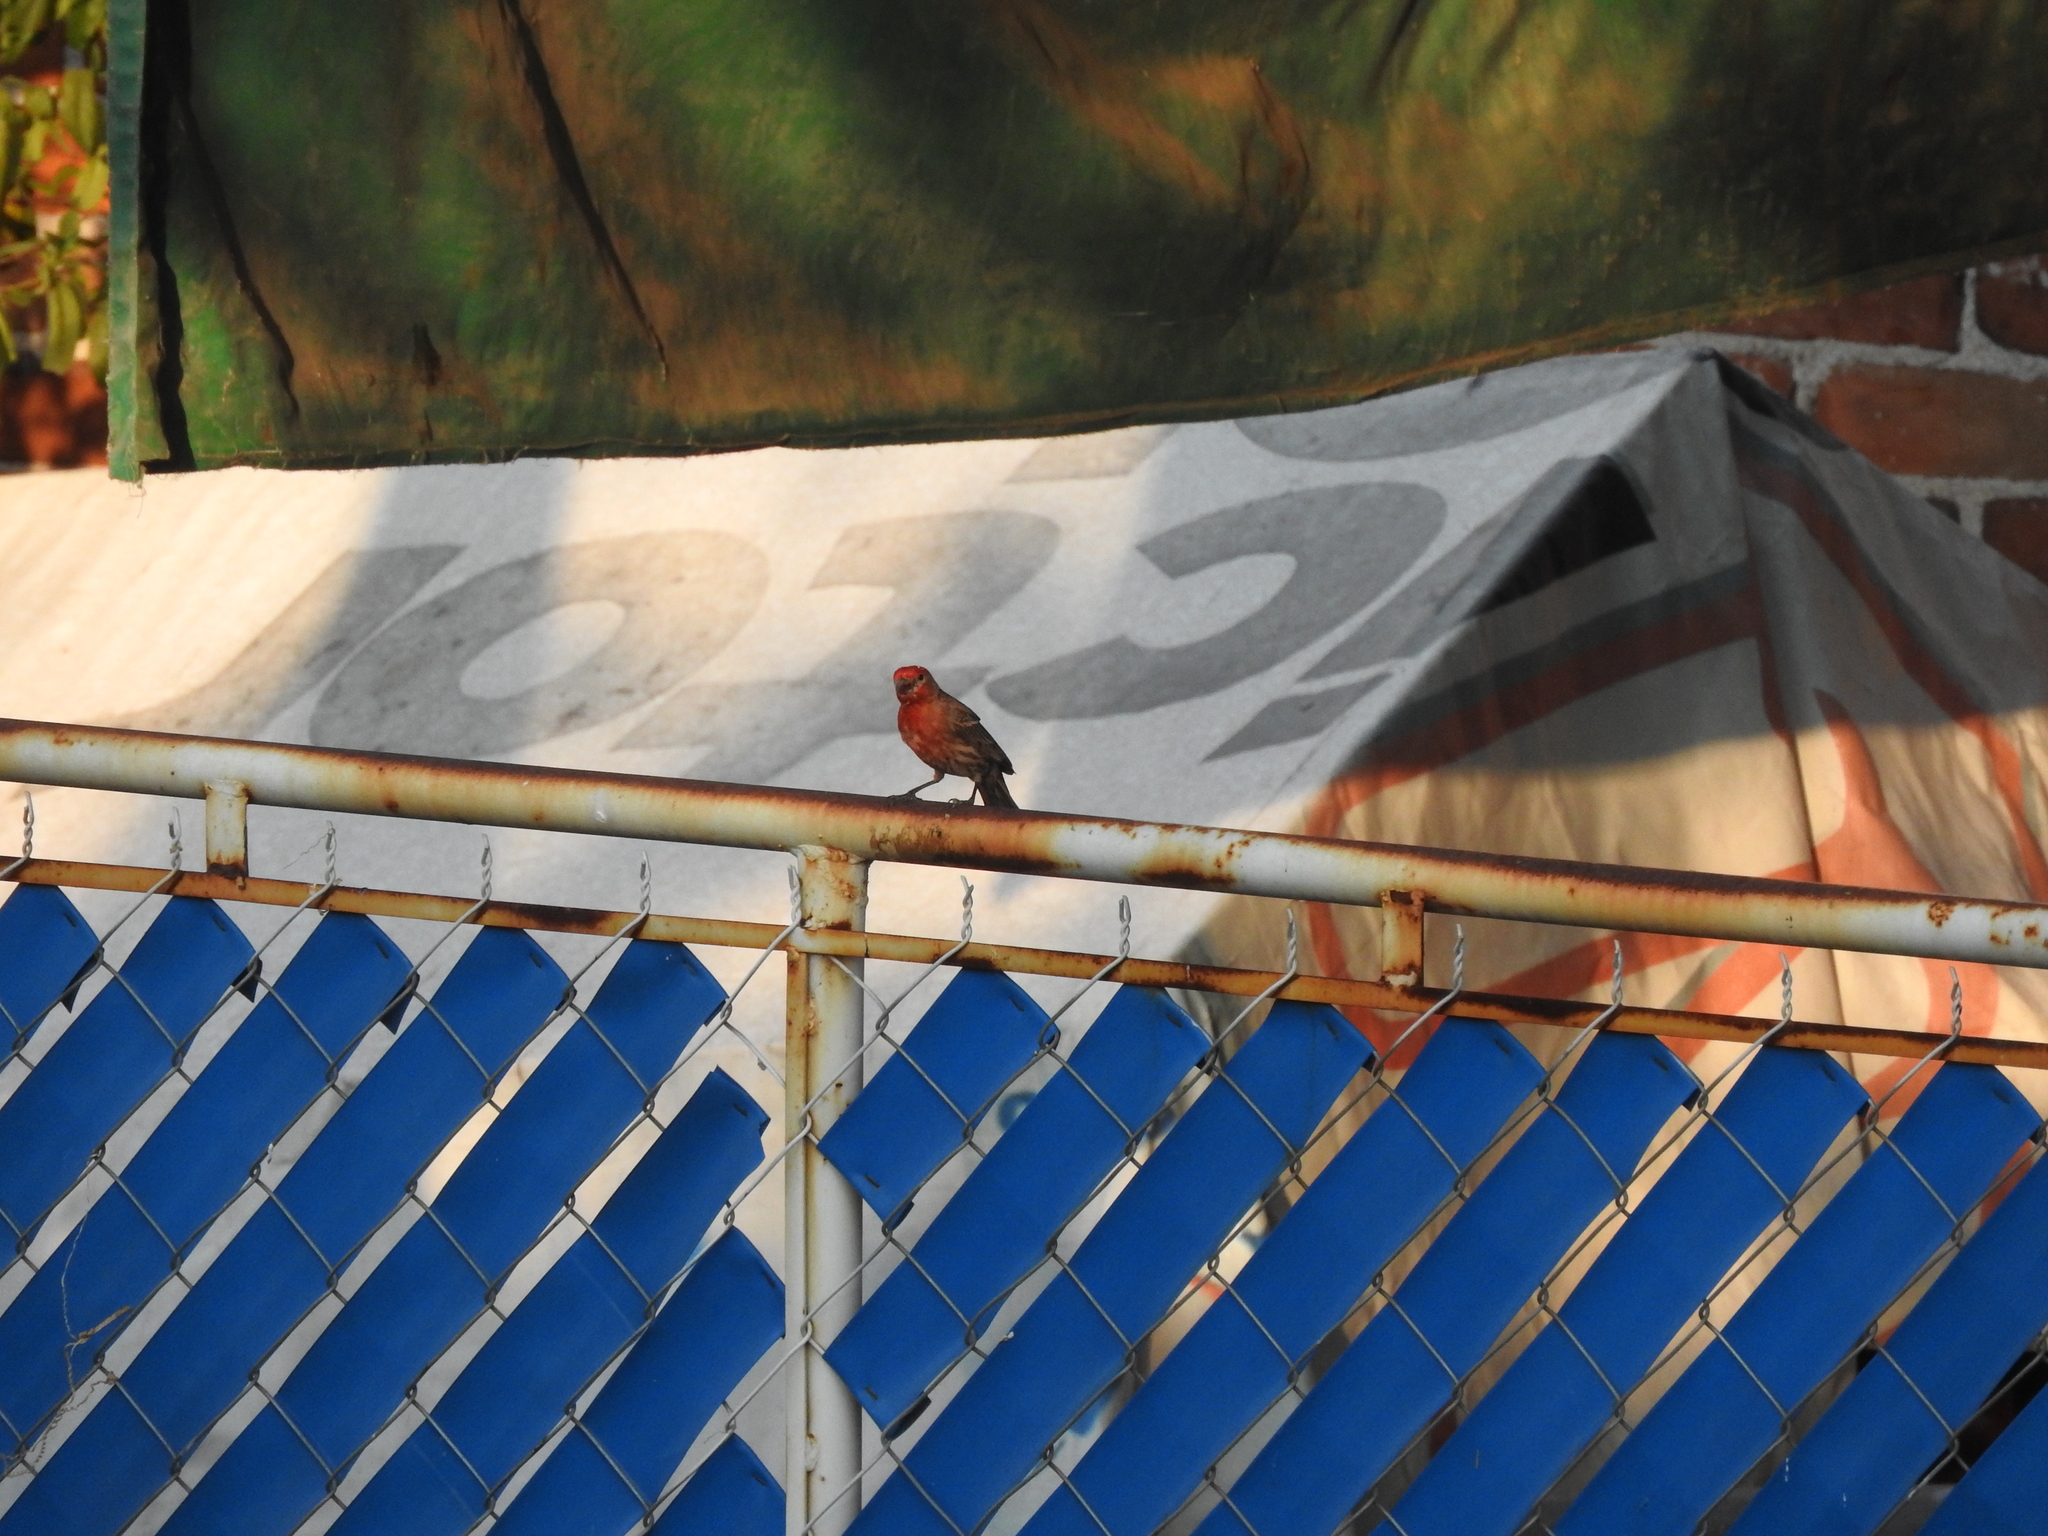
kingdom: Animalia
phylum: Chordata
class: Aves
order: Passeriformes
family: Fringillidae
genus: Haemorhous
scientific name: Haemorhous mexicanus
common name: House finch
